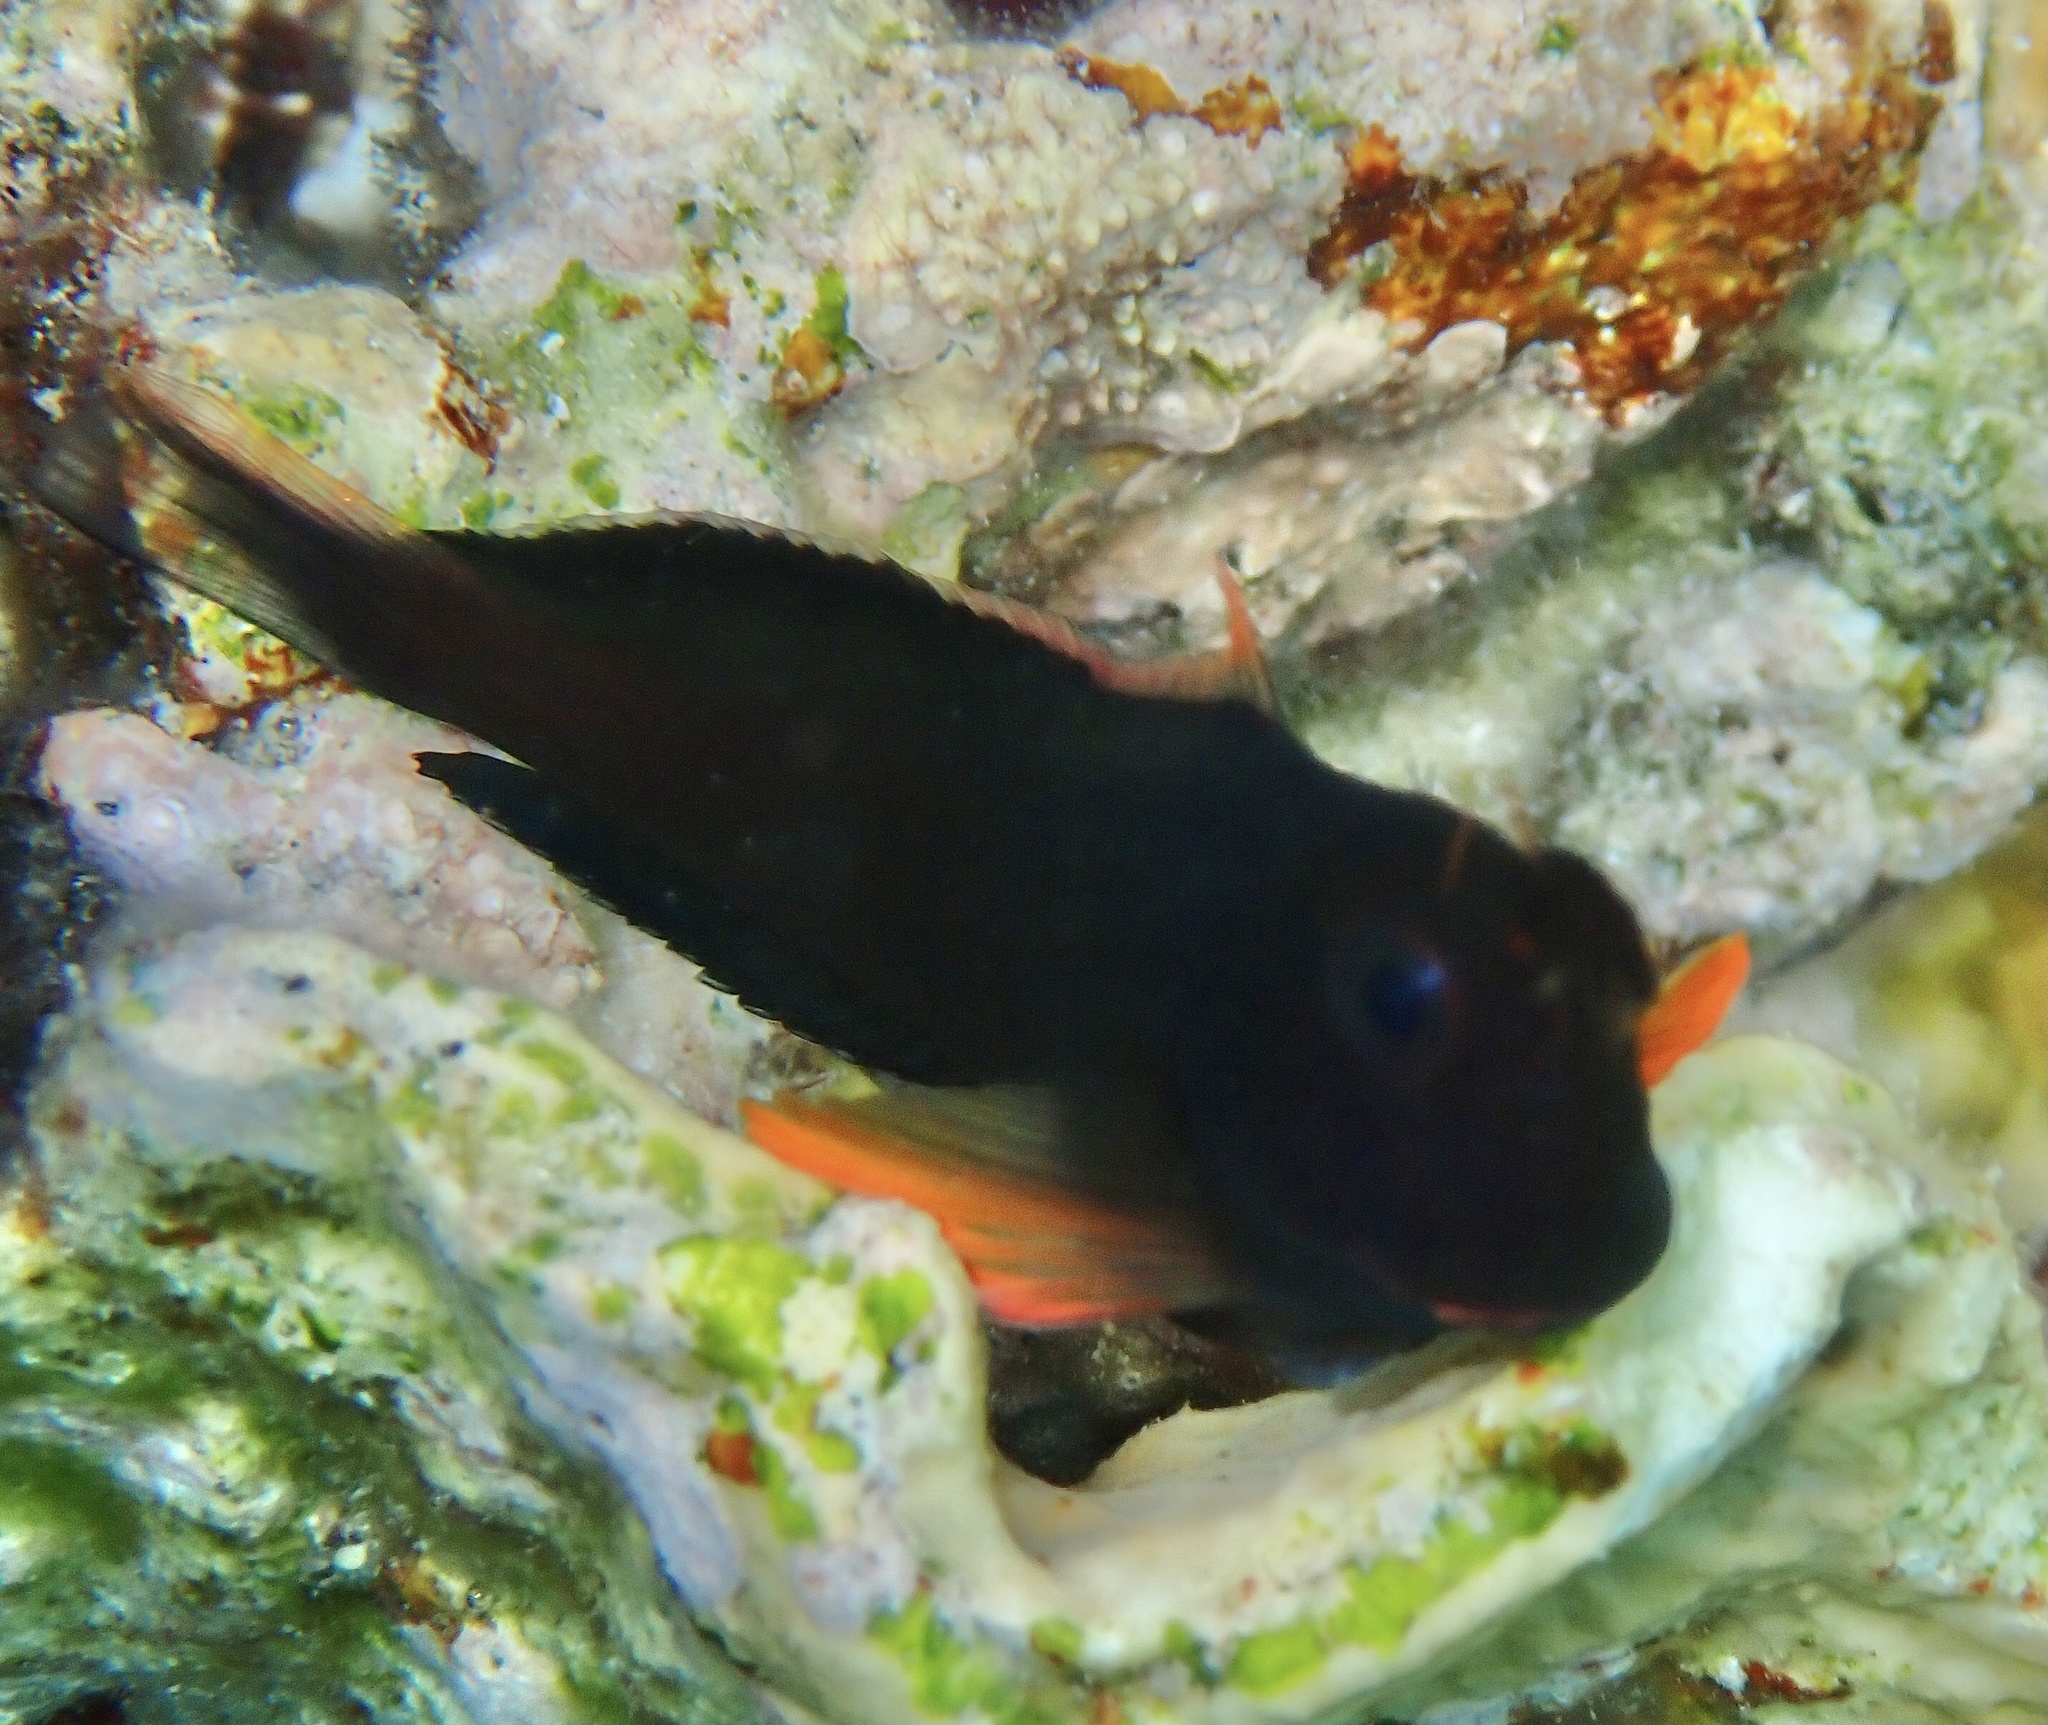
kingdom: Animalia
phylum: Chordata
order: Perciformes
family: Blenniidae
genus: Ophioblennius
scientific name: Ophioblennius macclurei
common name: Redlip blenny
